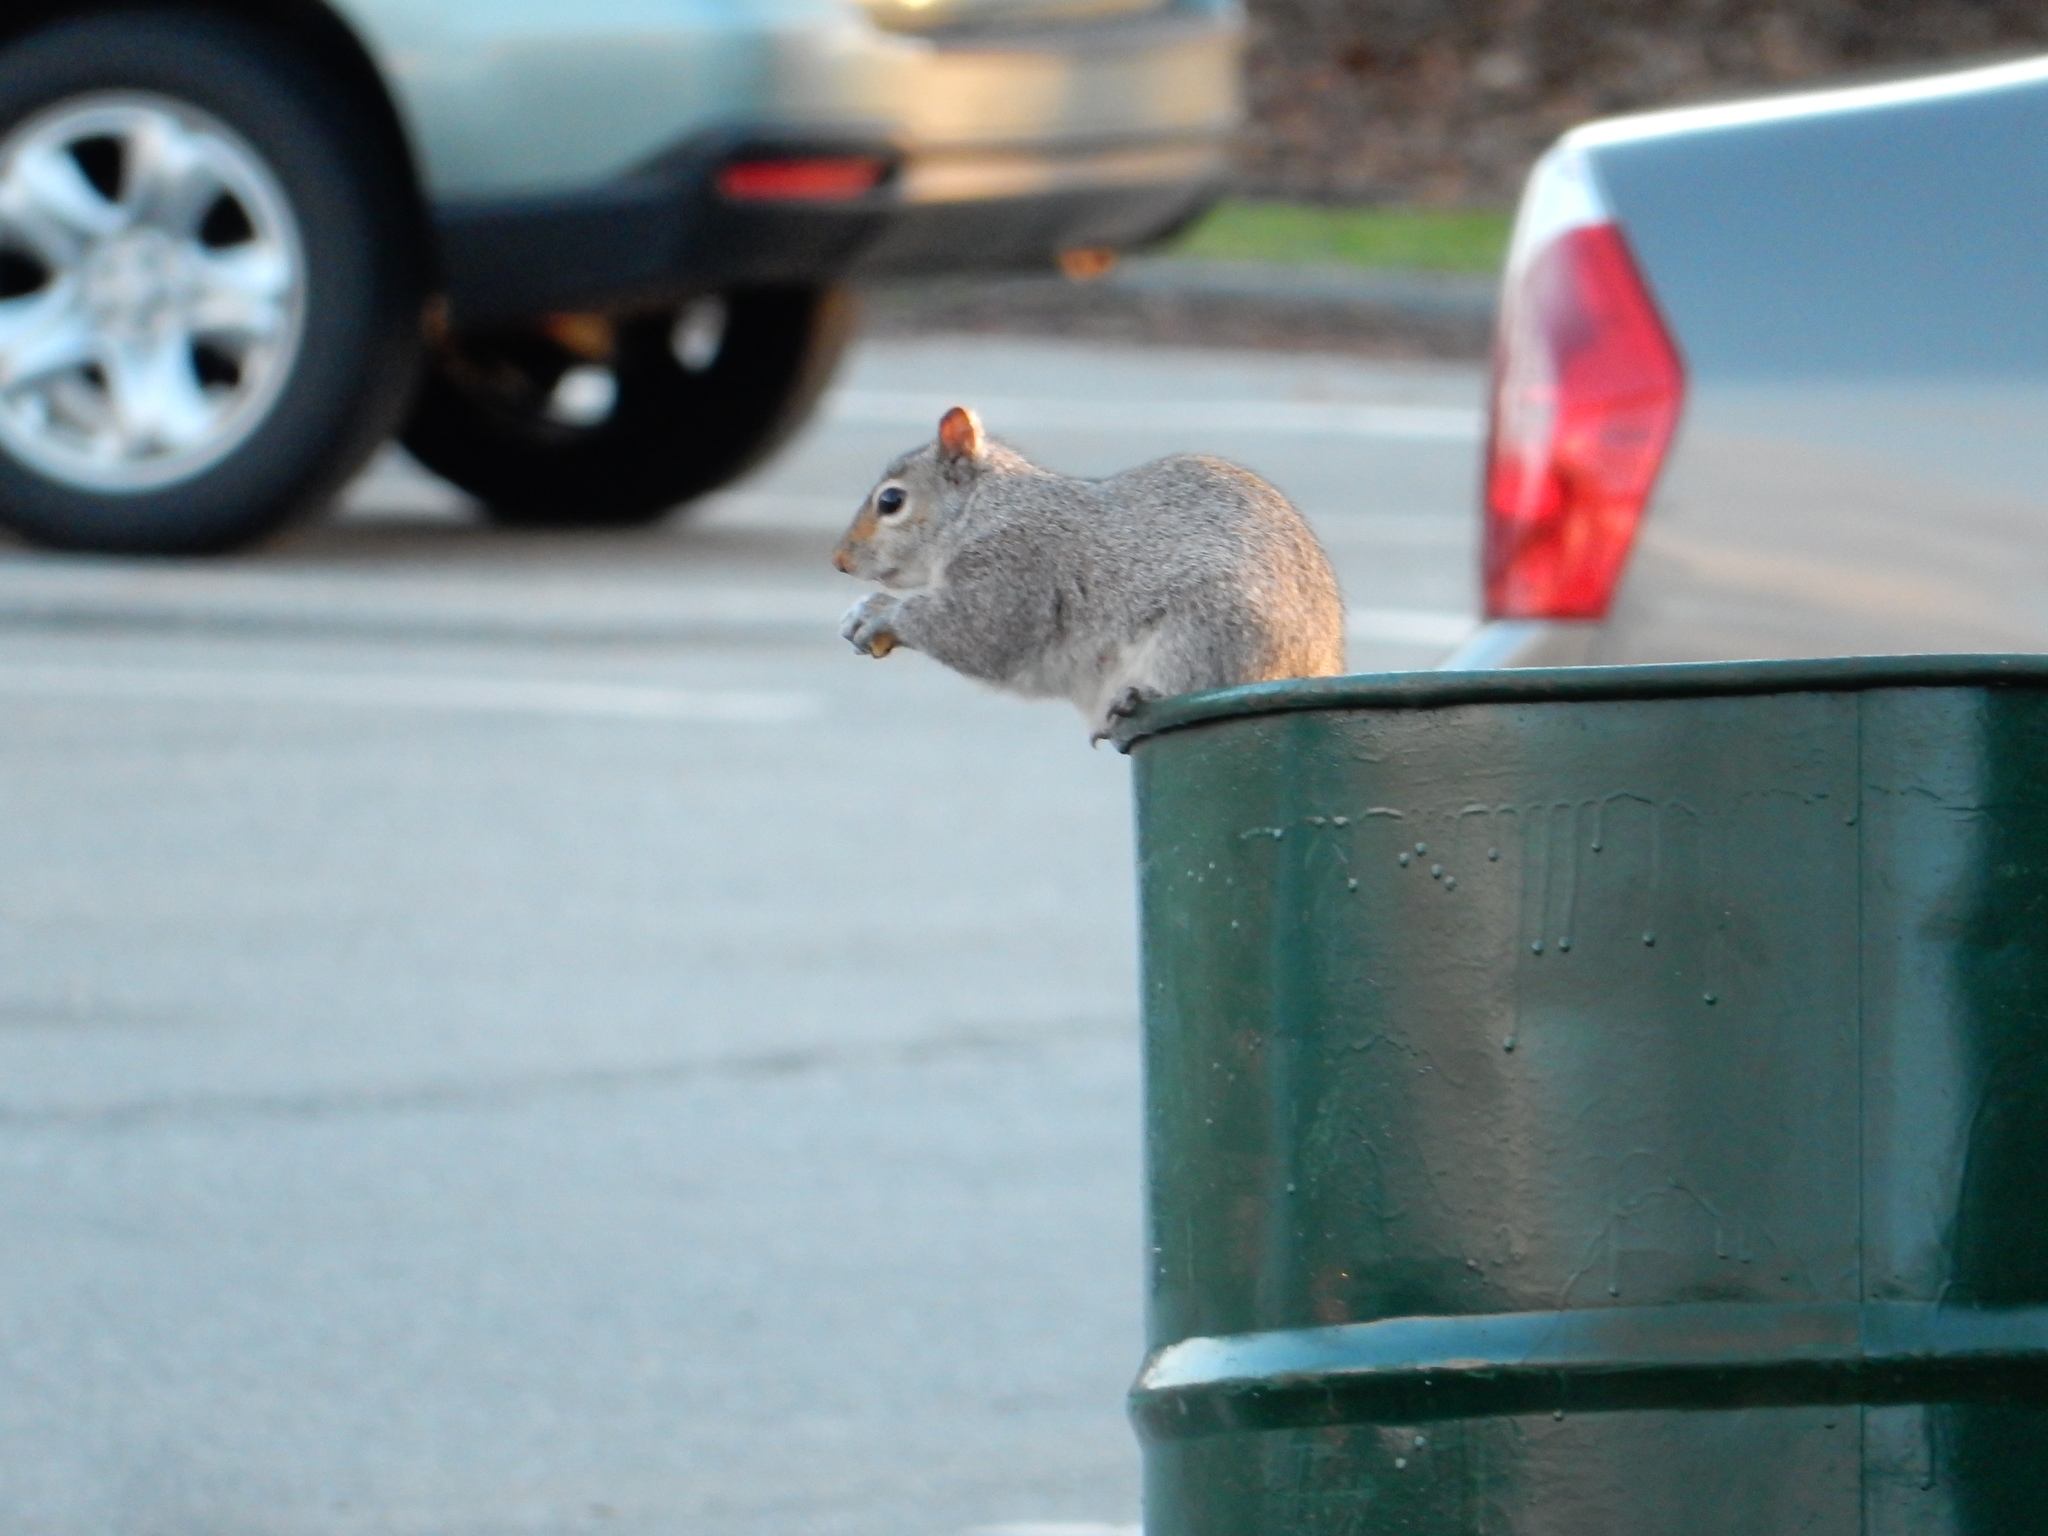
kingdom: Animalia
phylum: Chordata
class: Mammalia
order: Rodentia
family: Sciuridae
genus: Sciurus
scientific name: Sciurus carolinensis
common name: Eastern gray squirrel
